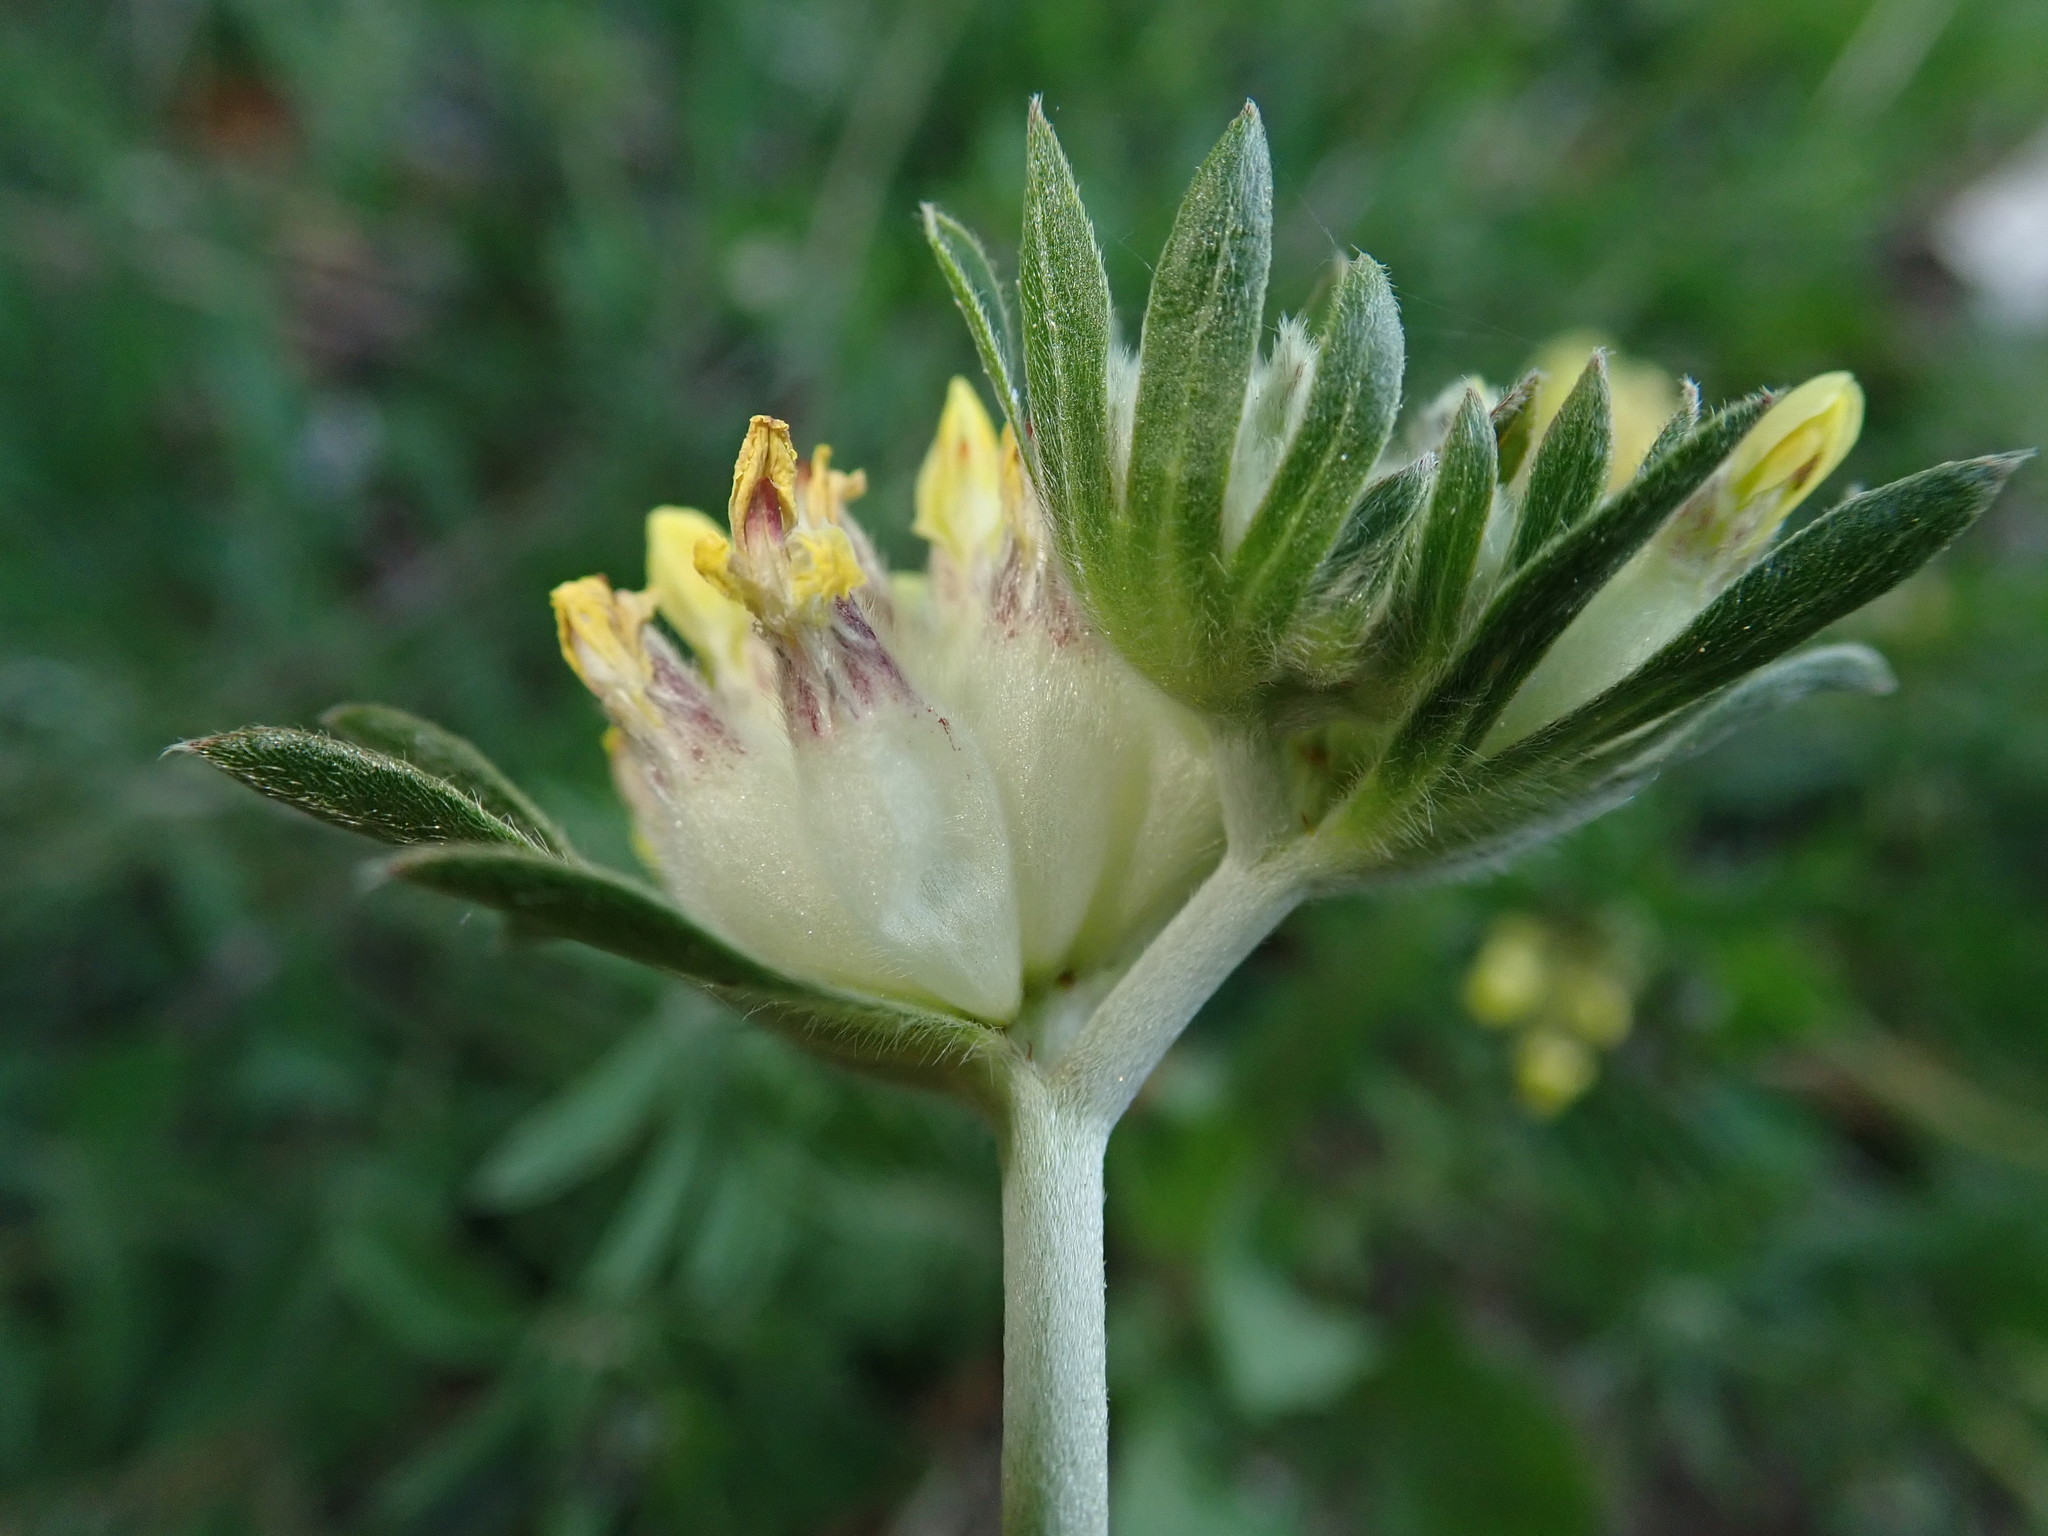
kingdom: Plantae
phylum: Tracheophyta
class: Magnoliopsida
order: Fabales
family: Fabaceae
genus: Anthyllis
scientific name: Anthyllis vulneraria
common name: Kidney vetch
